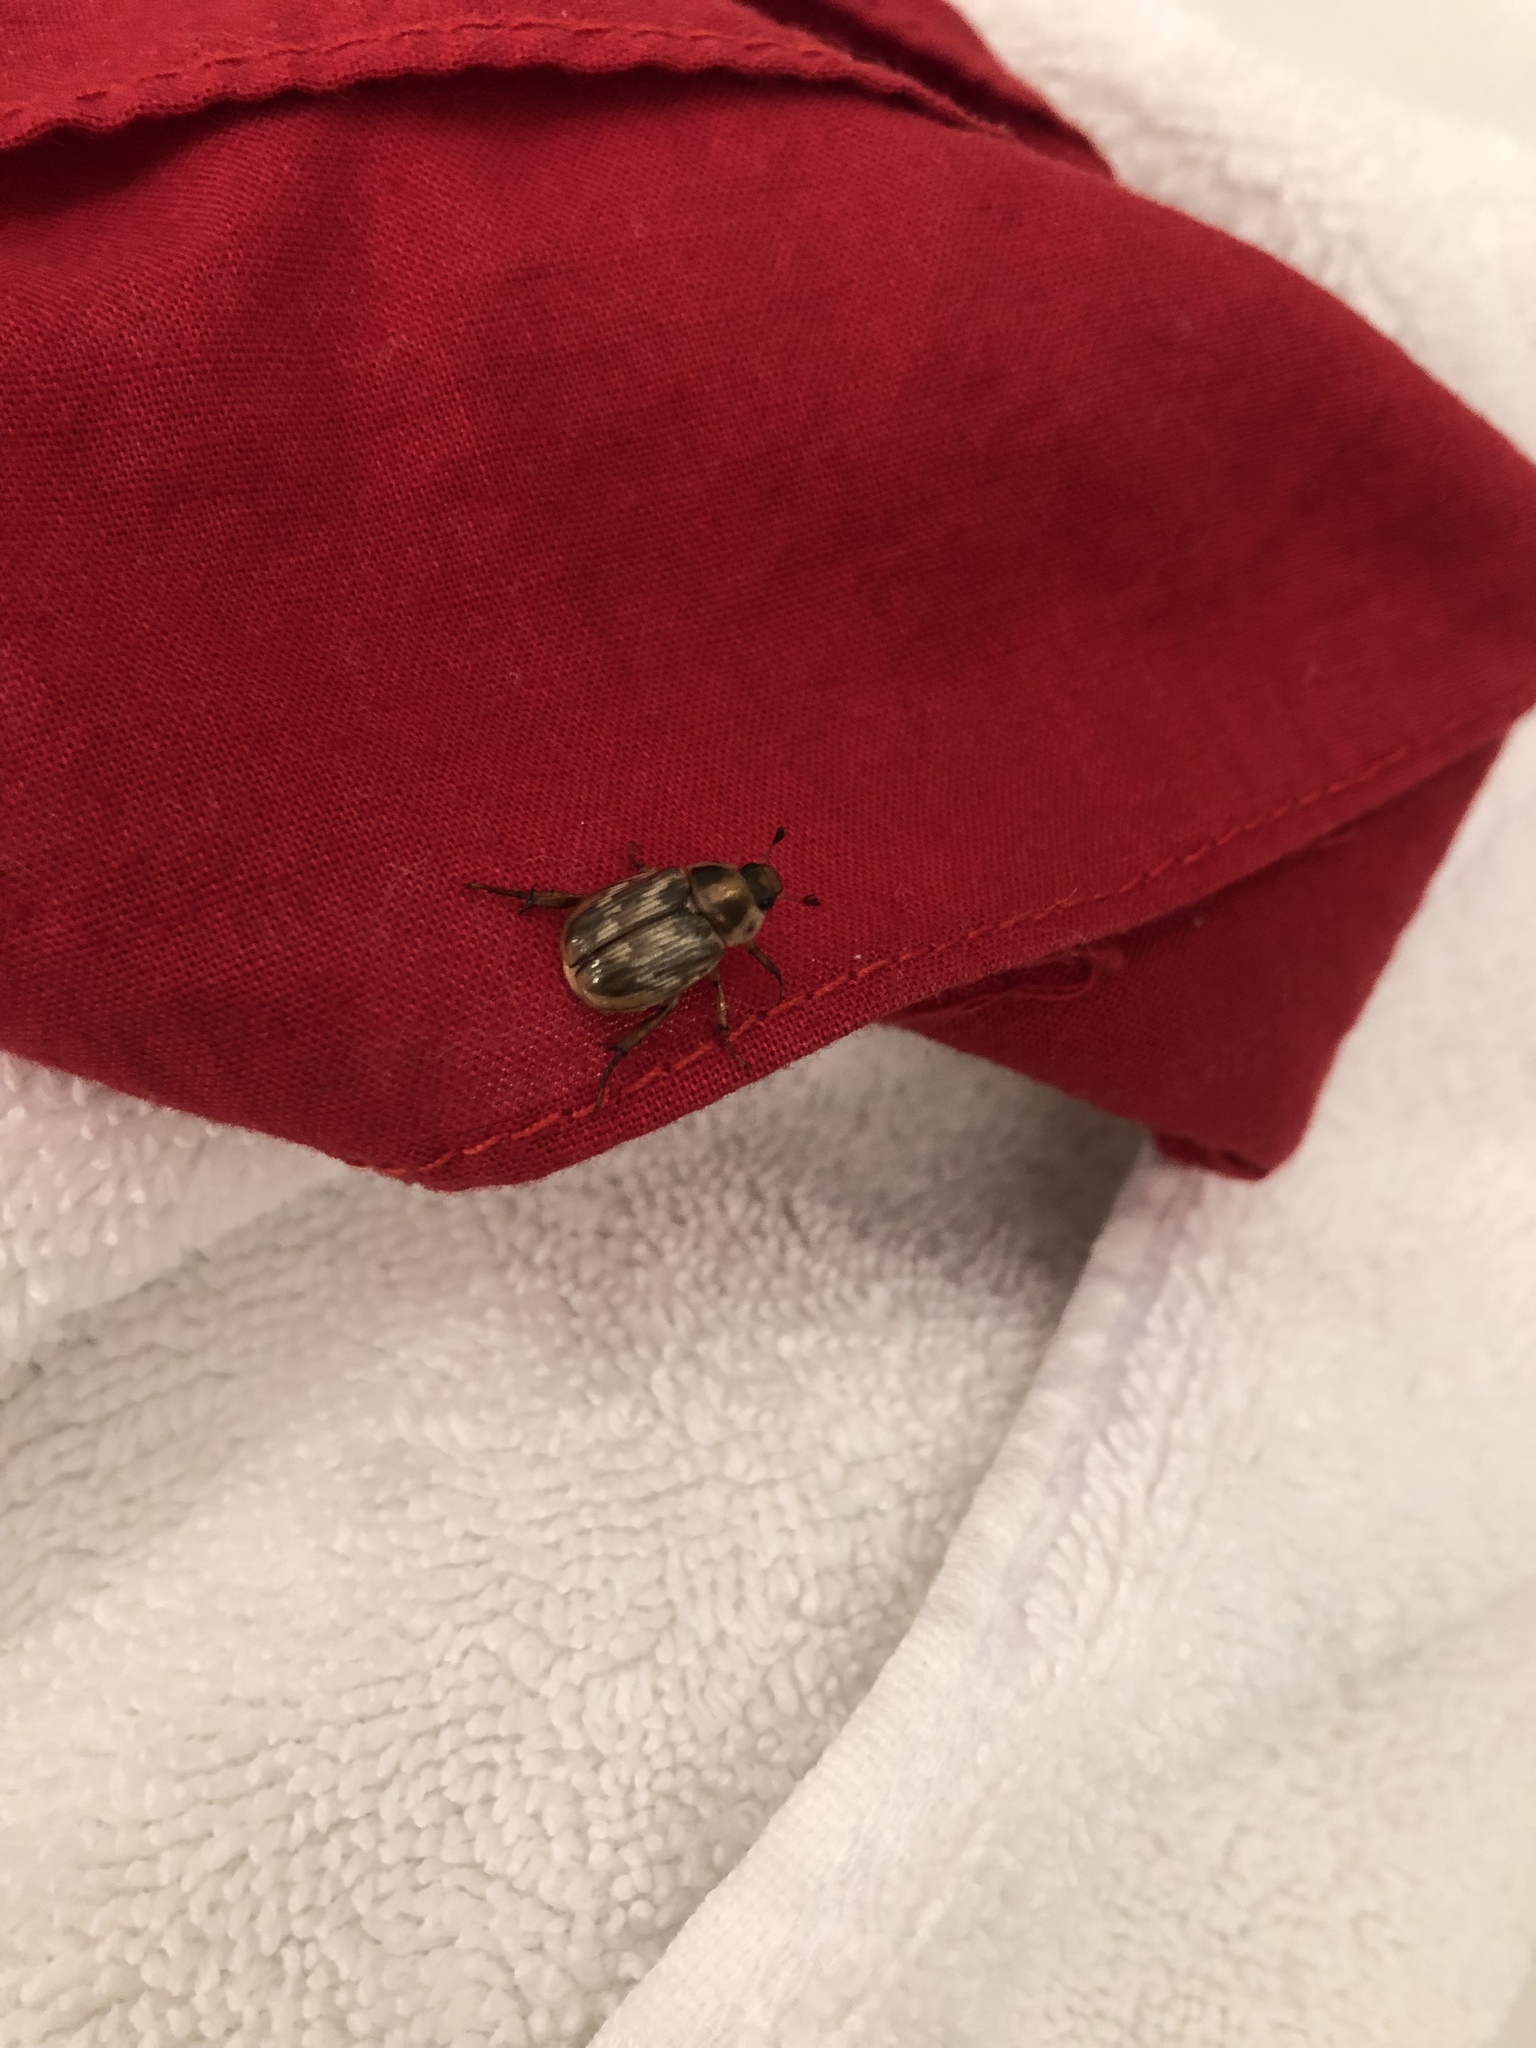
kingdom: Animalia
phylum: Arthropoda
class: Insecta
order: Coleoptera
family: Scarabaeidae
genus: Exomala
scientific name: Exomala orientalis
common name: Oriental beetle
